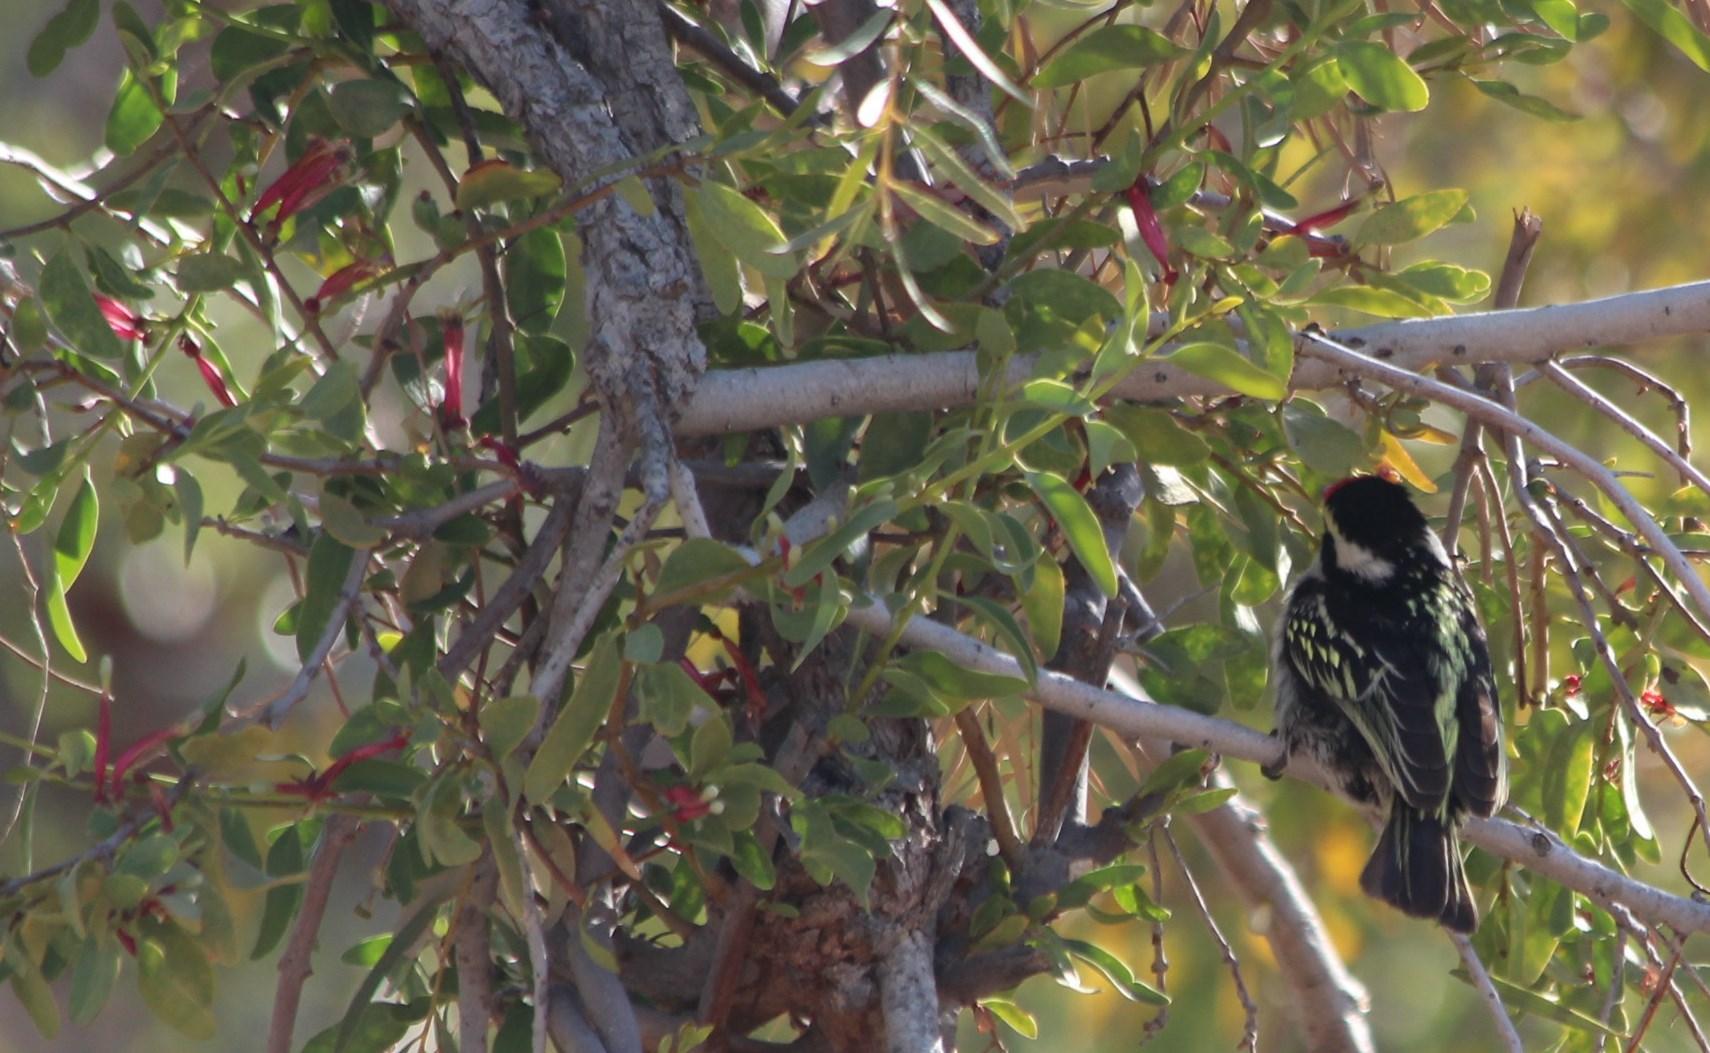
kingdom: Plantae
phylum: Tracheophyta
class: Magnoliopsida
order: Santalales
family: Loranthaceae
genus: Tapinanthus
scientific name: Tapinanthus oleifolius
